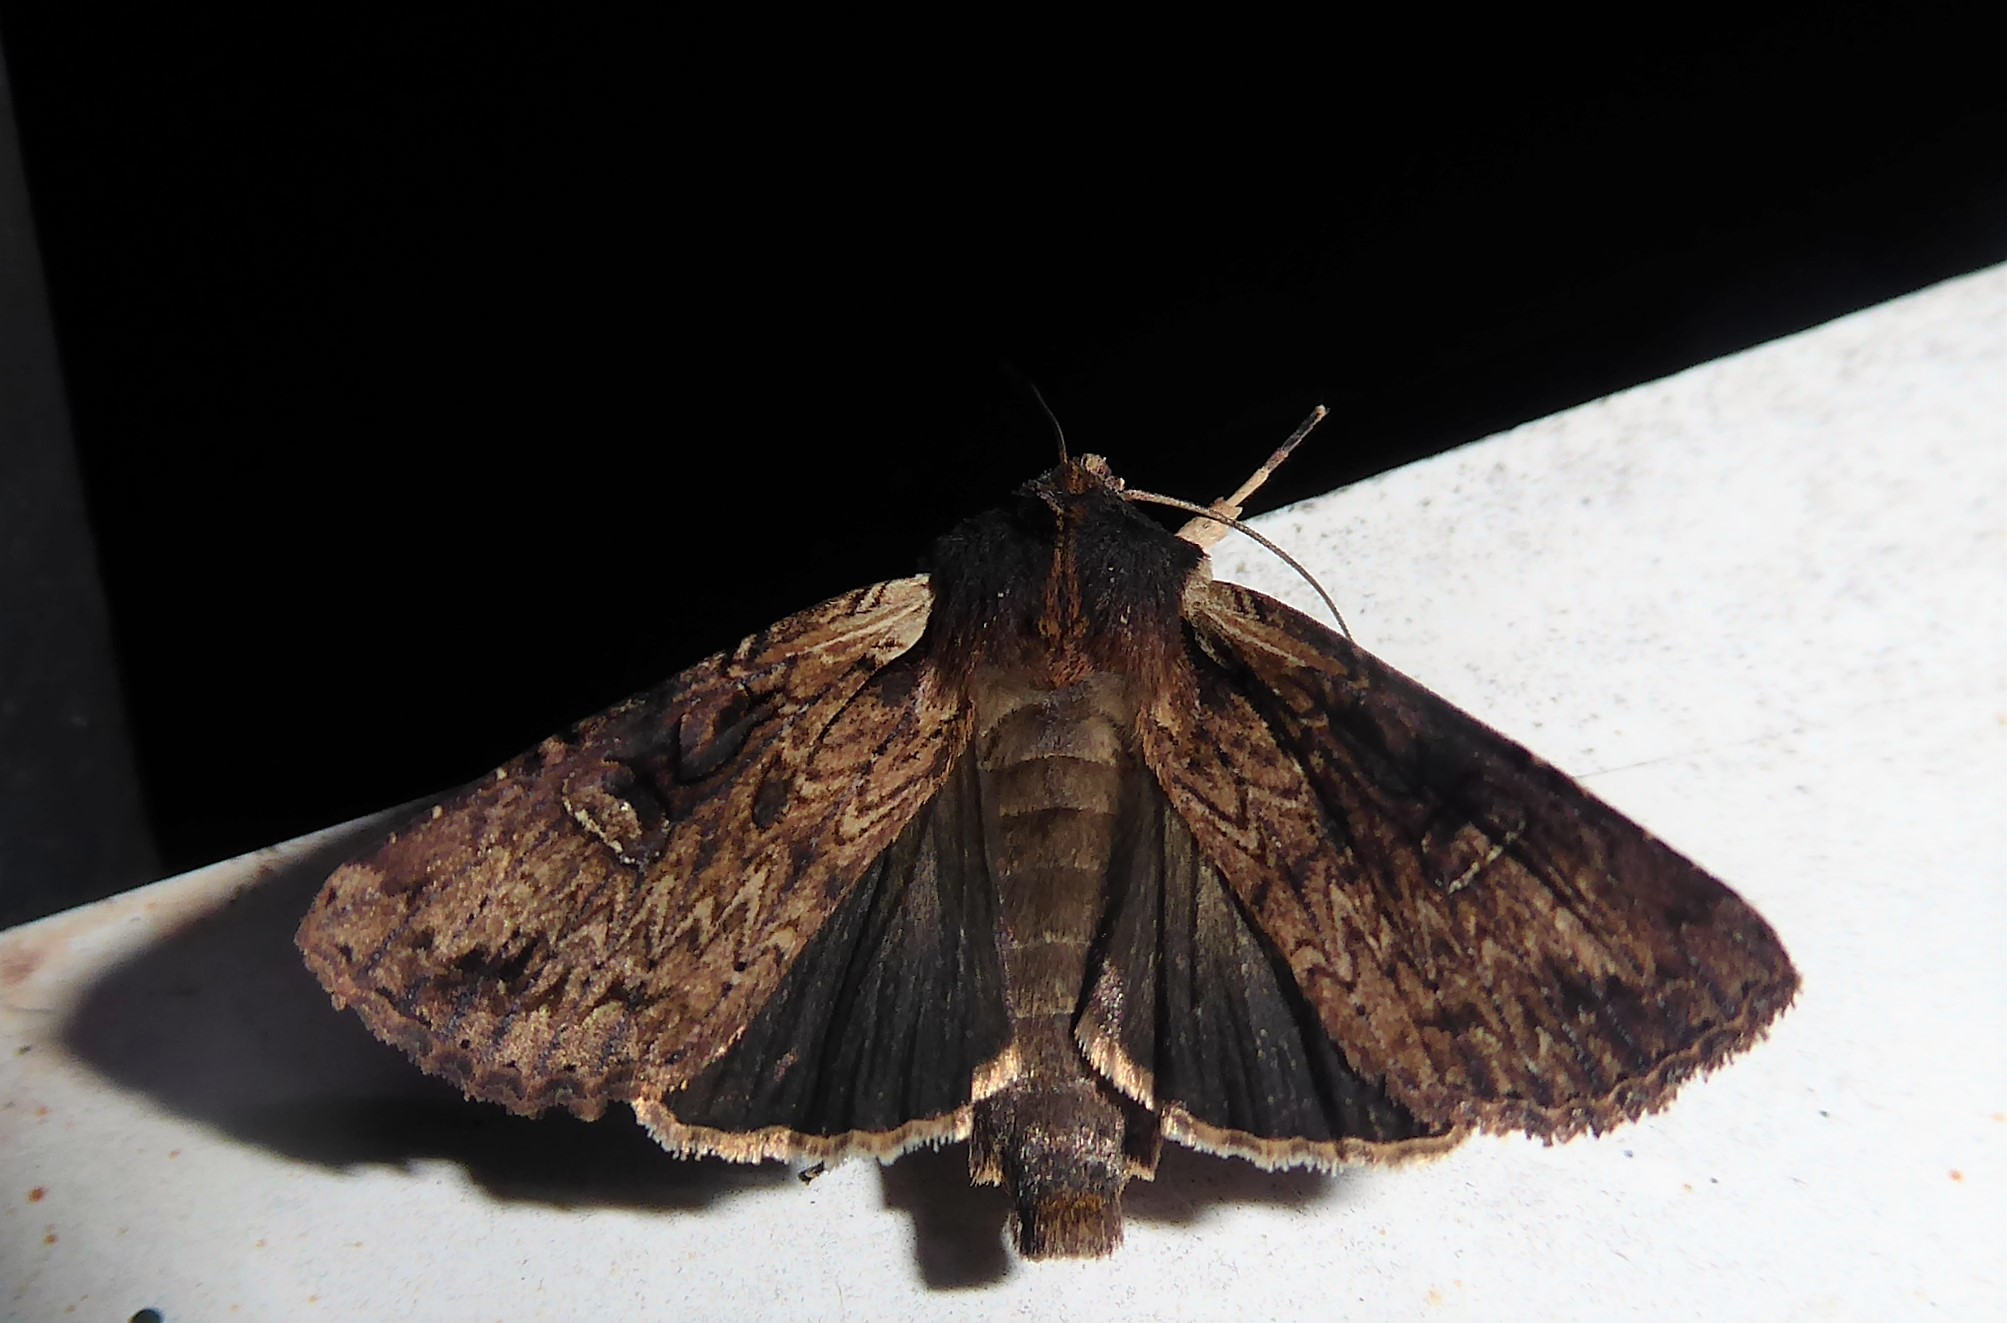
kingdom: Animalia
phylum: Arthropoda
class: Insecta
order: Lepidoptera
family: Noctuidae
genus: Ichneutica
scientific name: Ichneutica omoplaca
